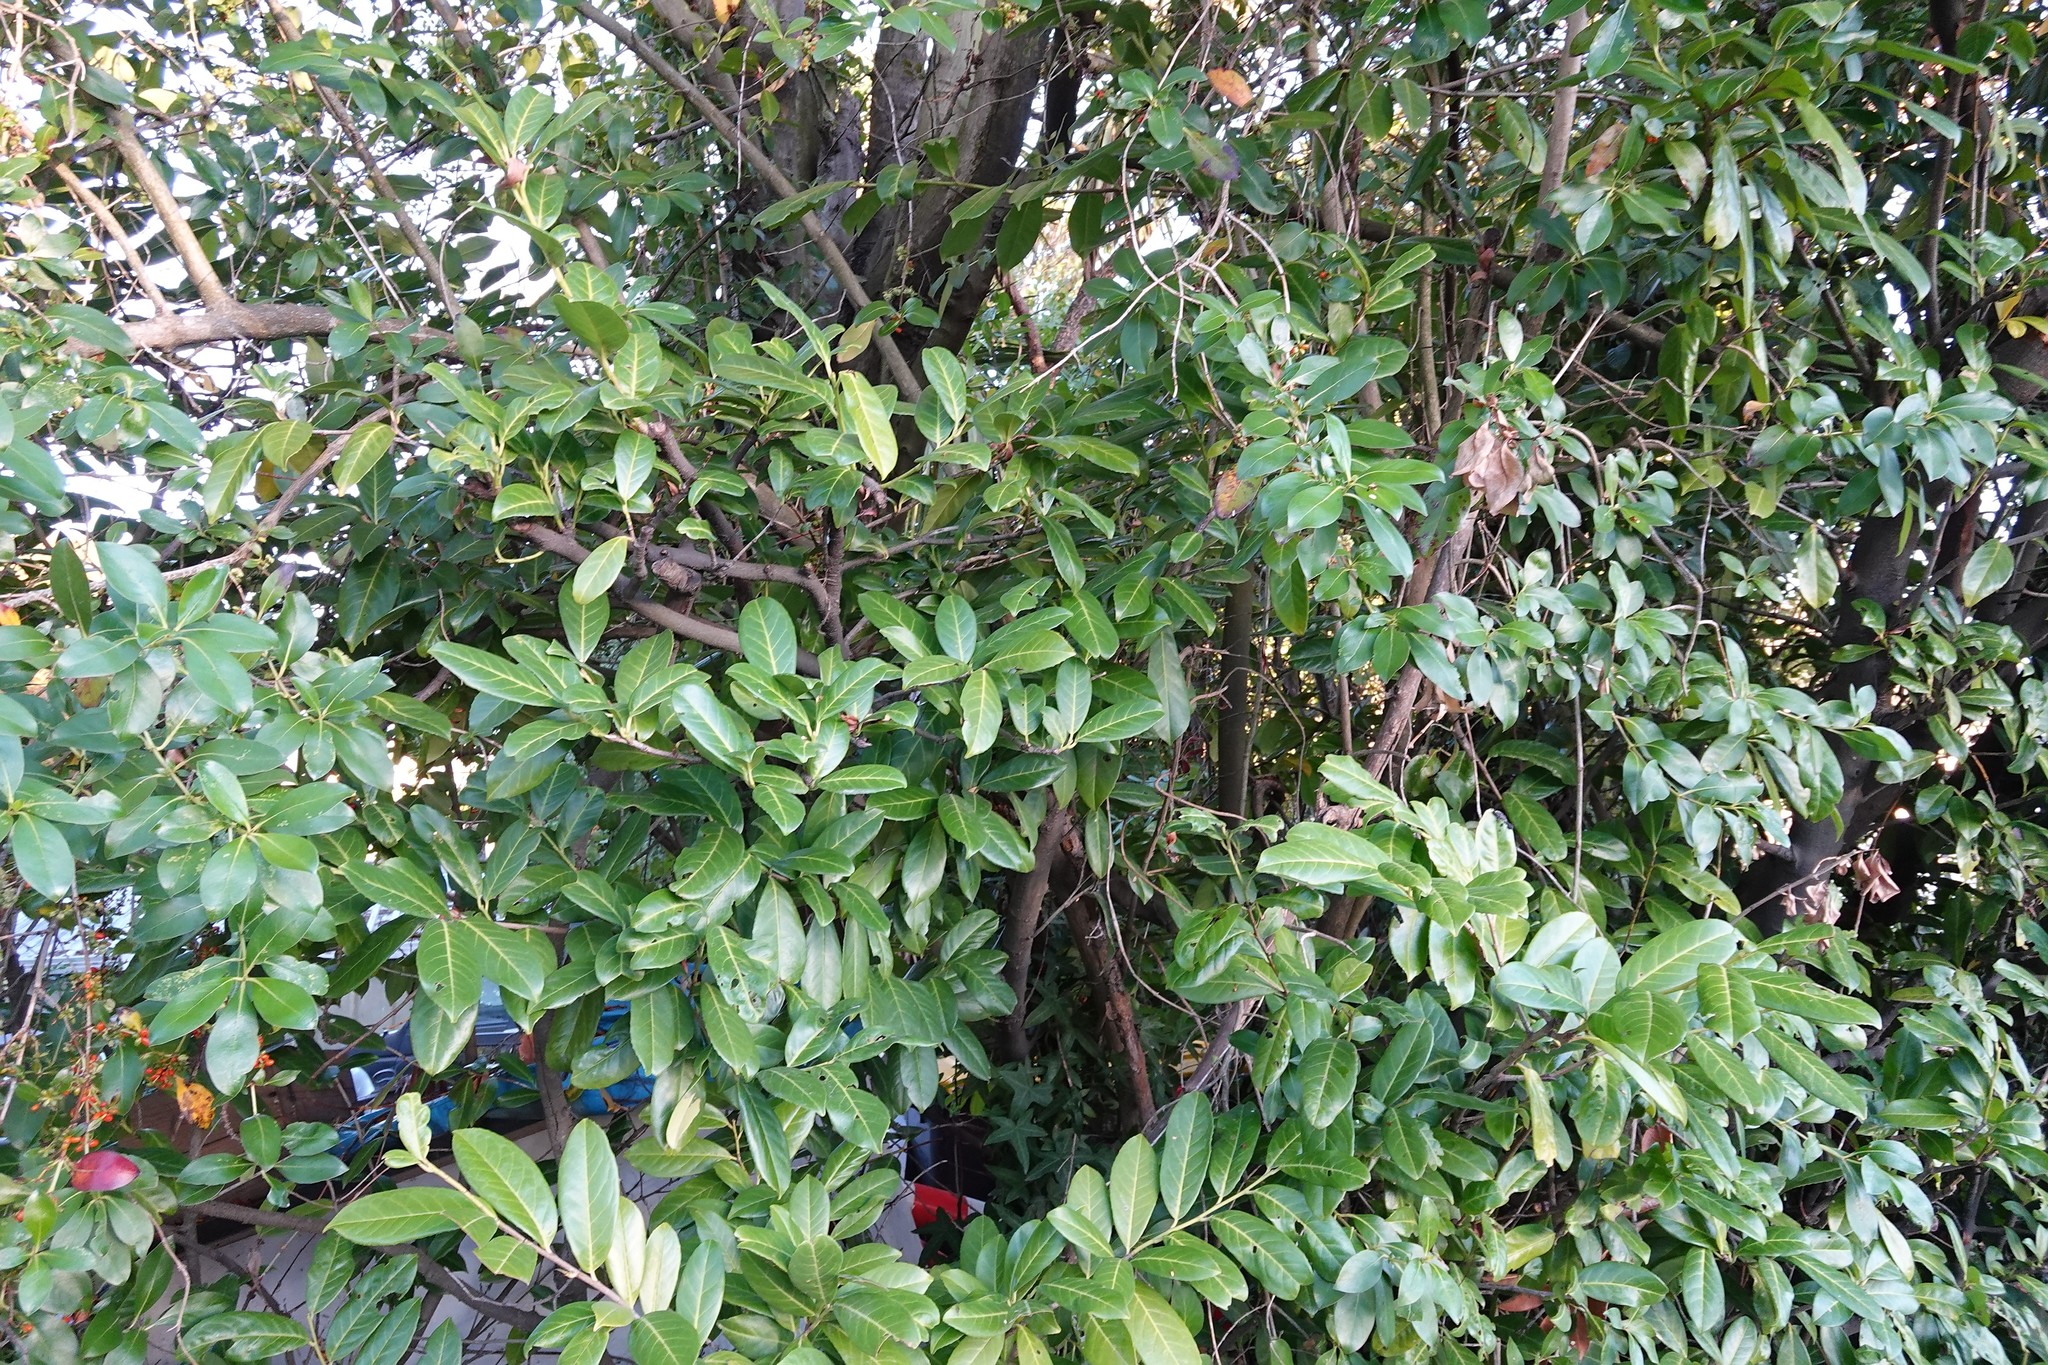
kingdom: Plantae
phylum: Tracheophyta
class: Magnoliopsida
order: Rosales
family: Rosaceae
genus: Prunus
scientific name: Prunus laurocerasus
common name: Cherry laurel
